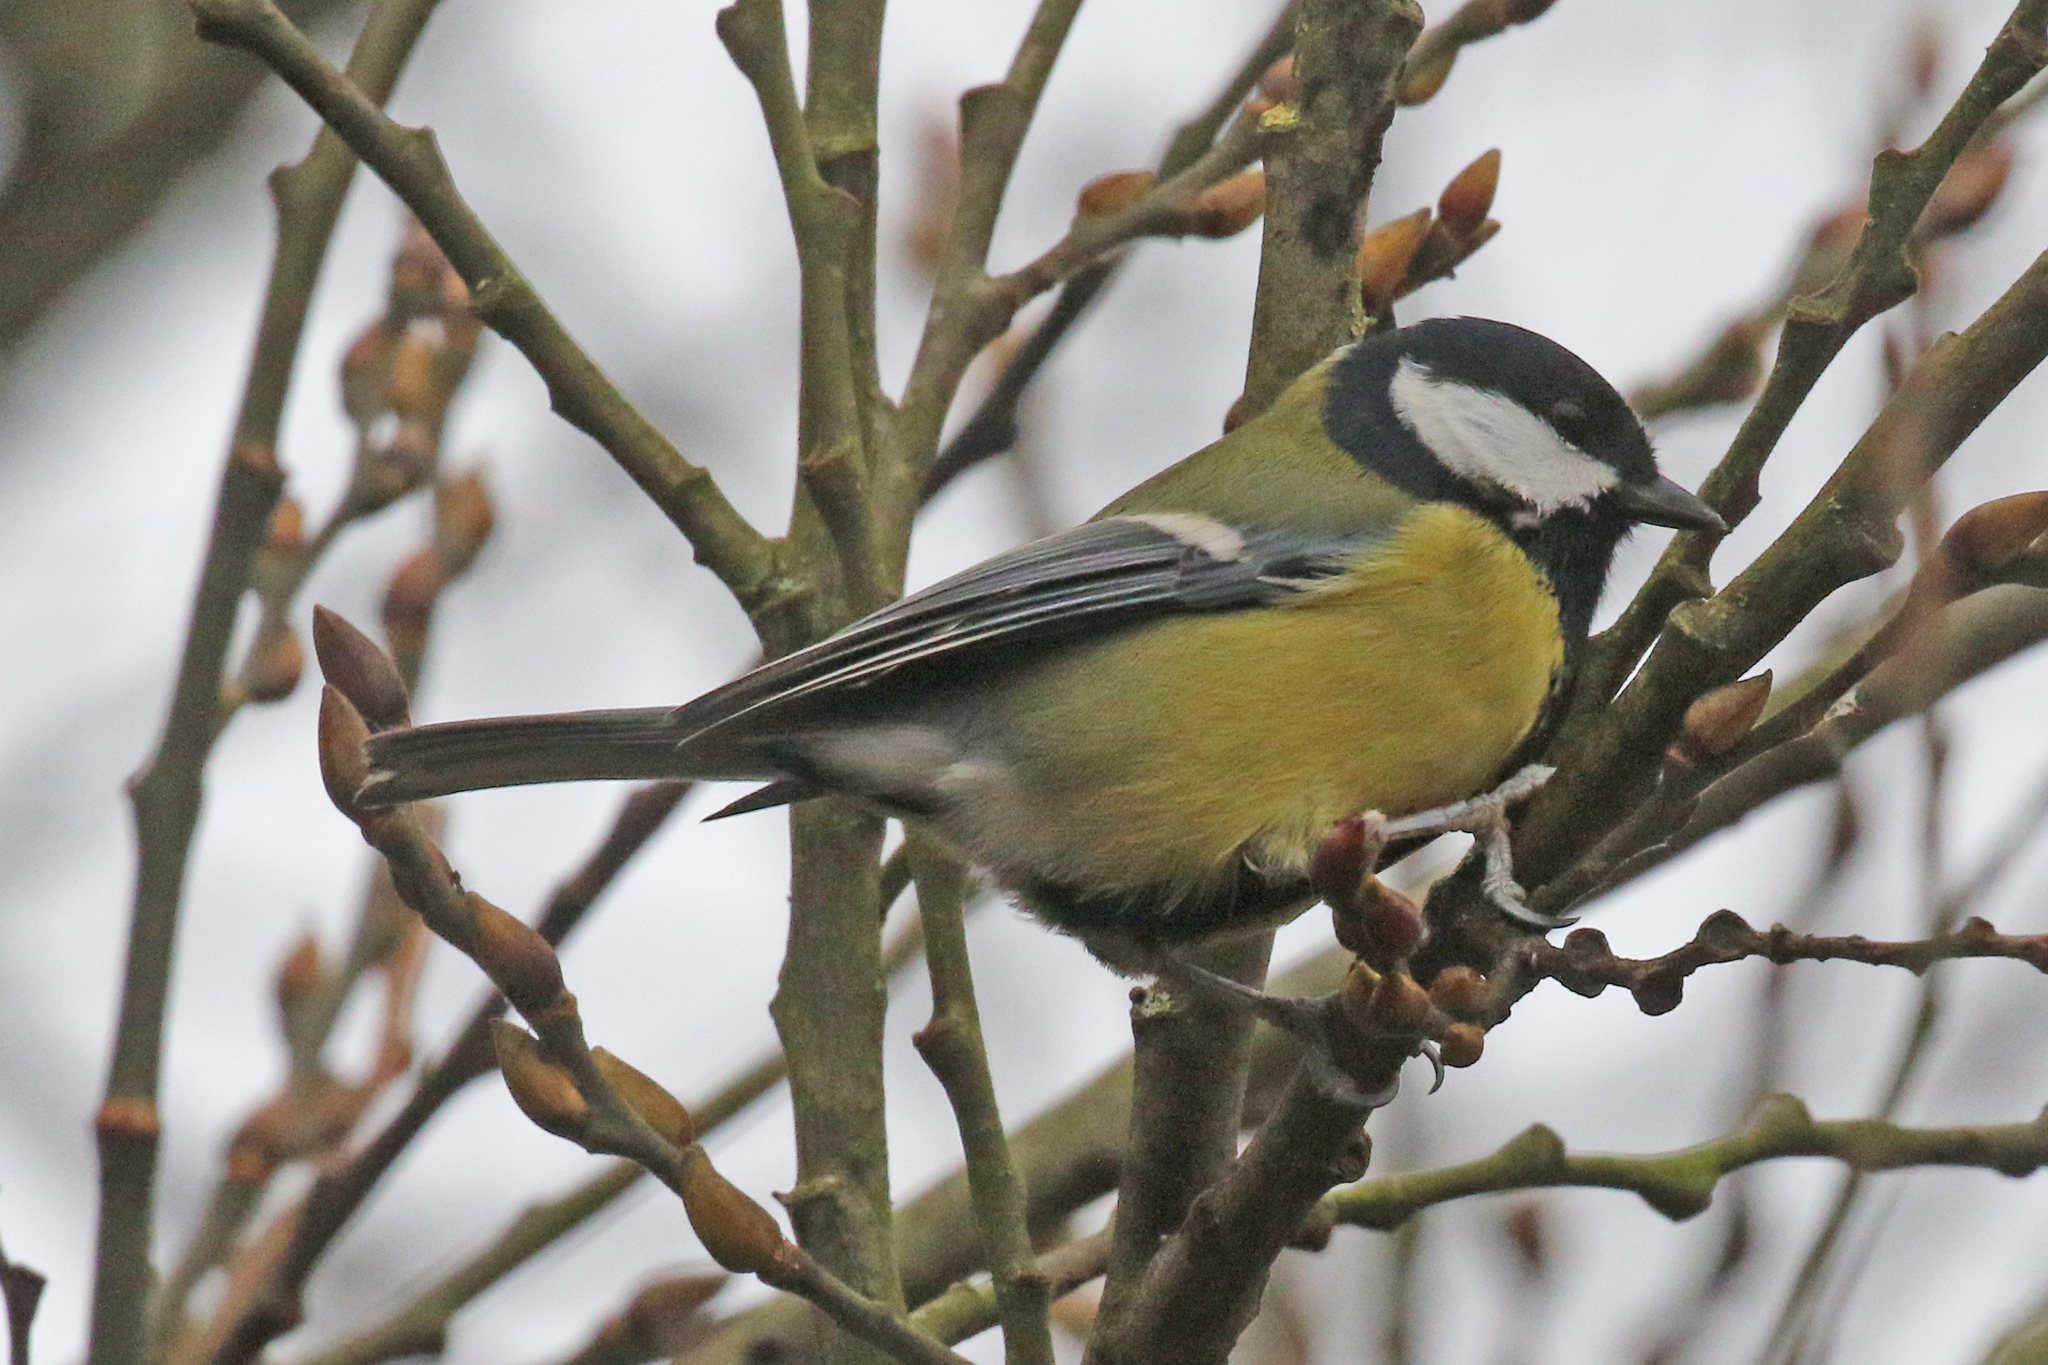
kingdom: Animalia
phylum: Chordata
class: Aves
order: Passeriformes
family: Paridae
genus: Parus
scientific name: Parus major
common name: Great tit
